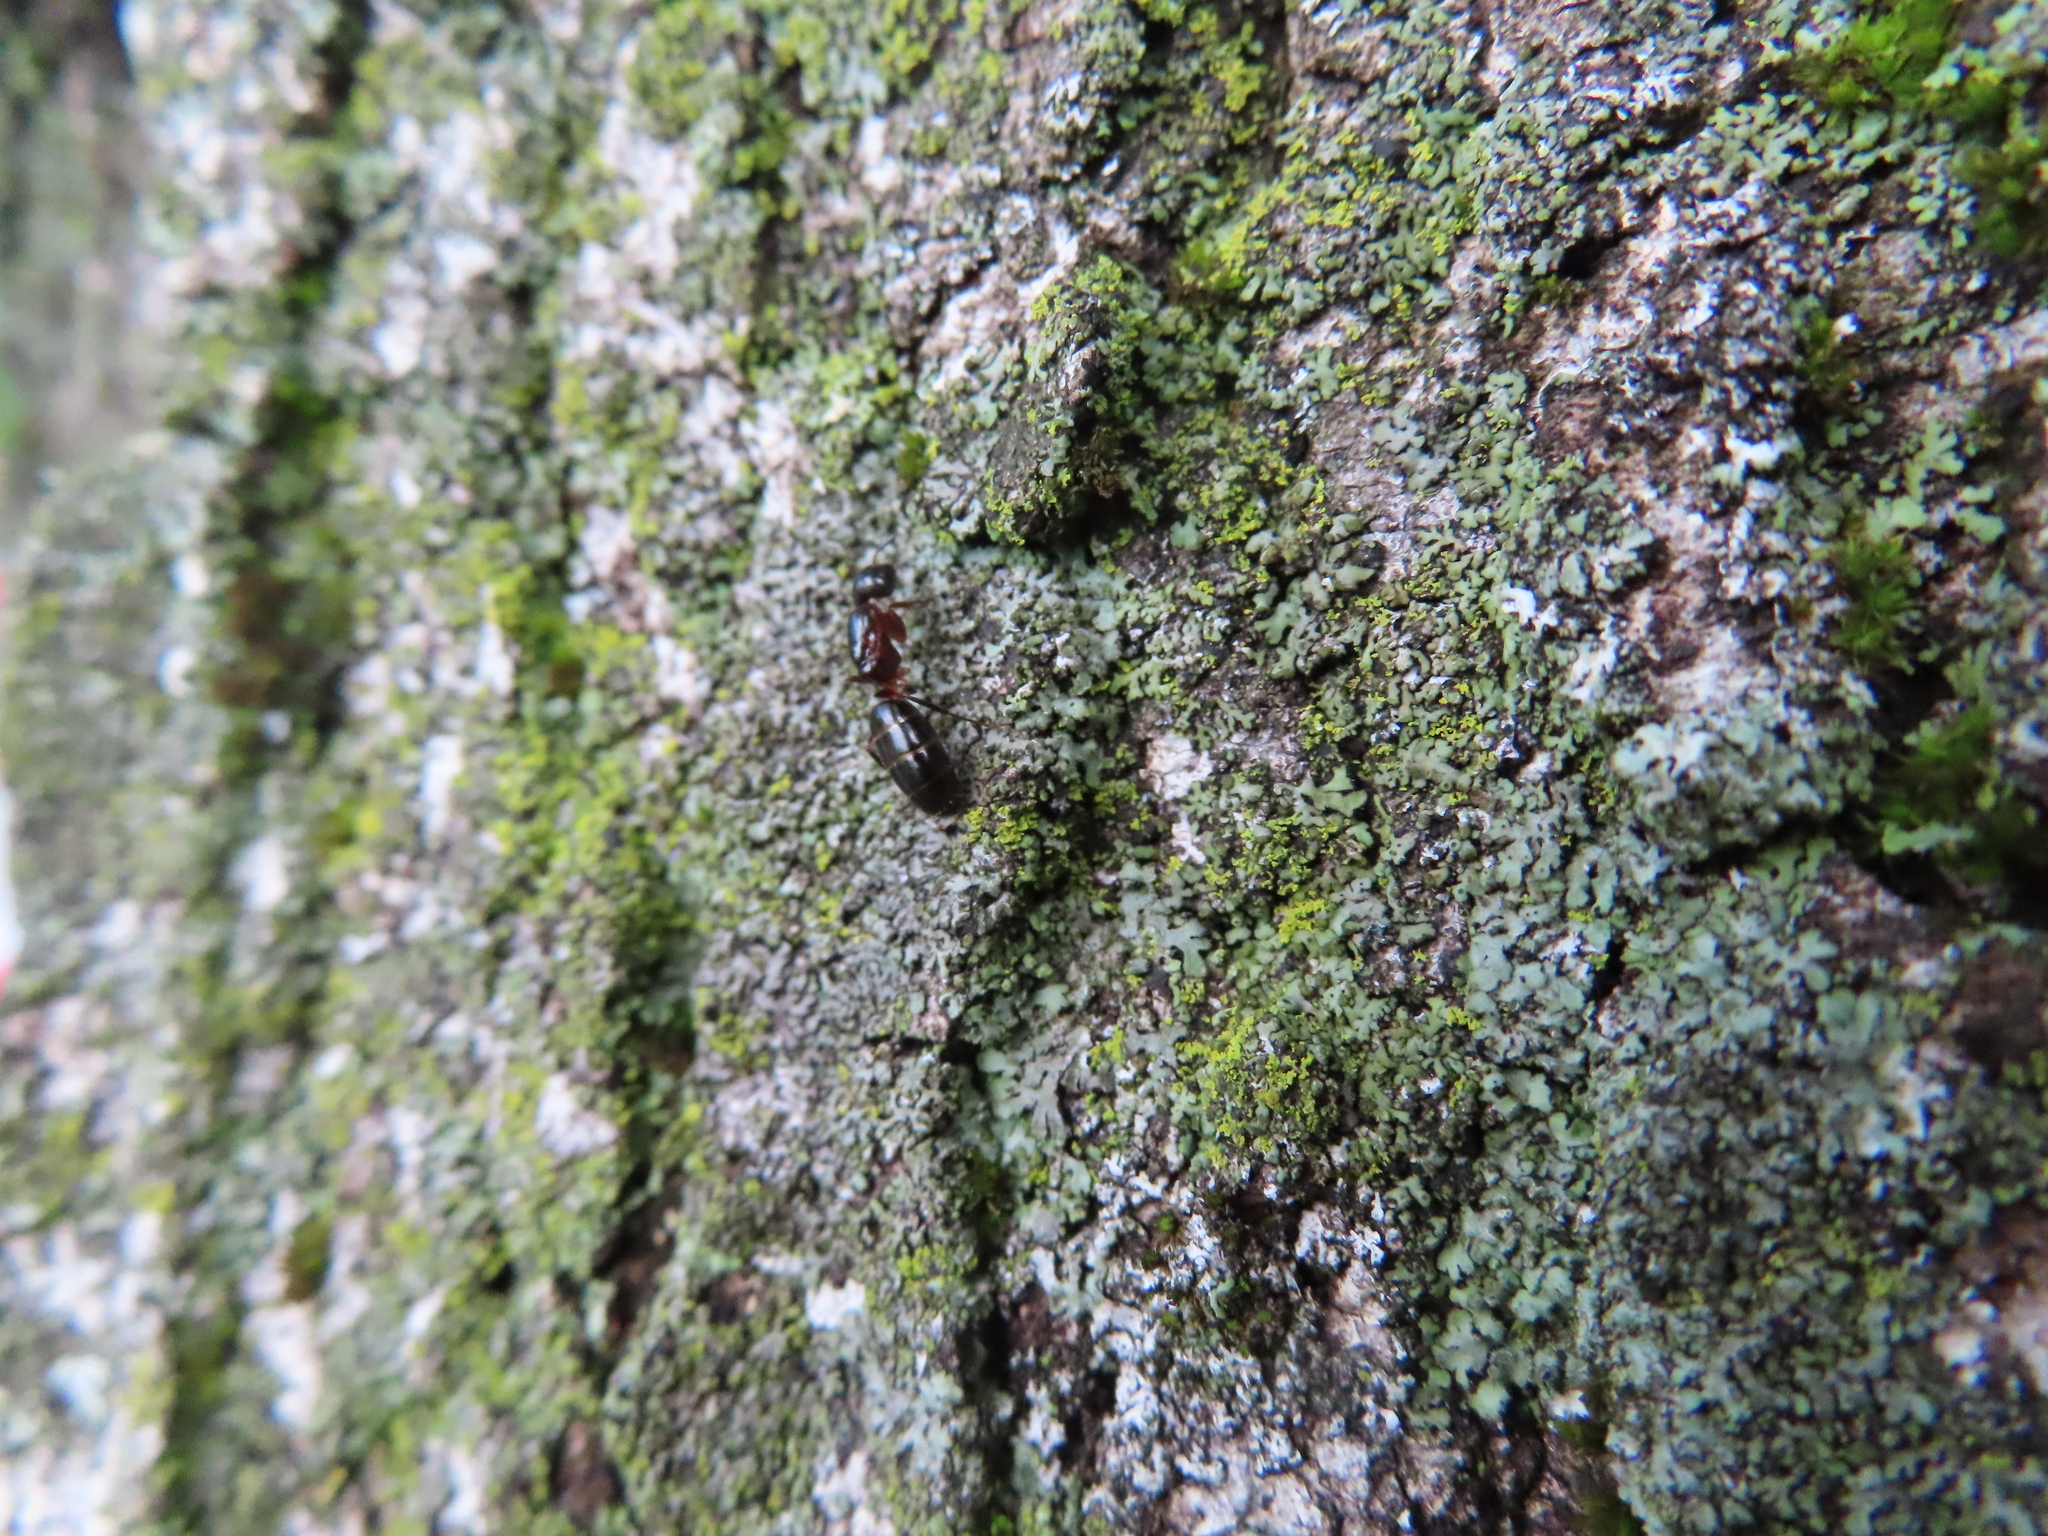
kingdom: Animalia
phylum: Arthropoda
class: Insecta
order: Hymenoptera
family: Formicidae
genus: Camponotus
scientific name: Camponotus nearcticus
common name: Smaller carpenter ant
